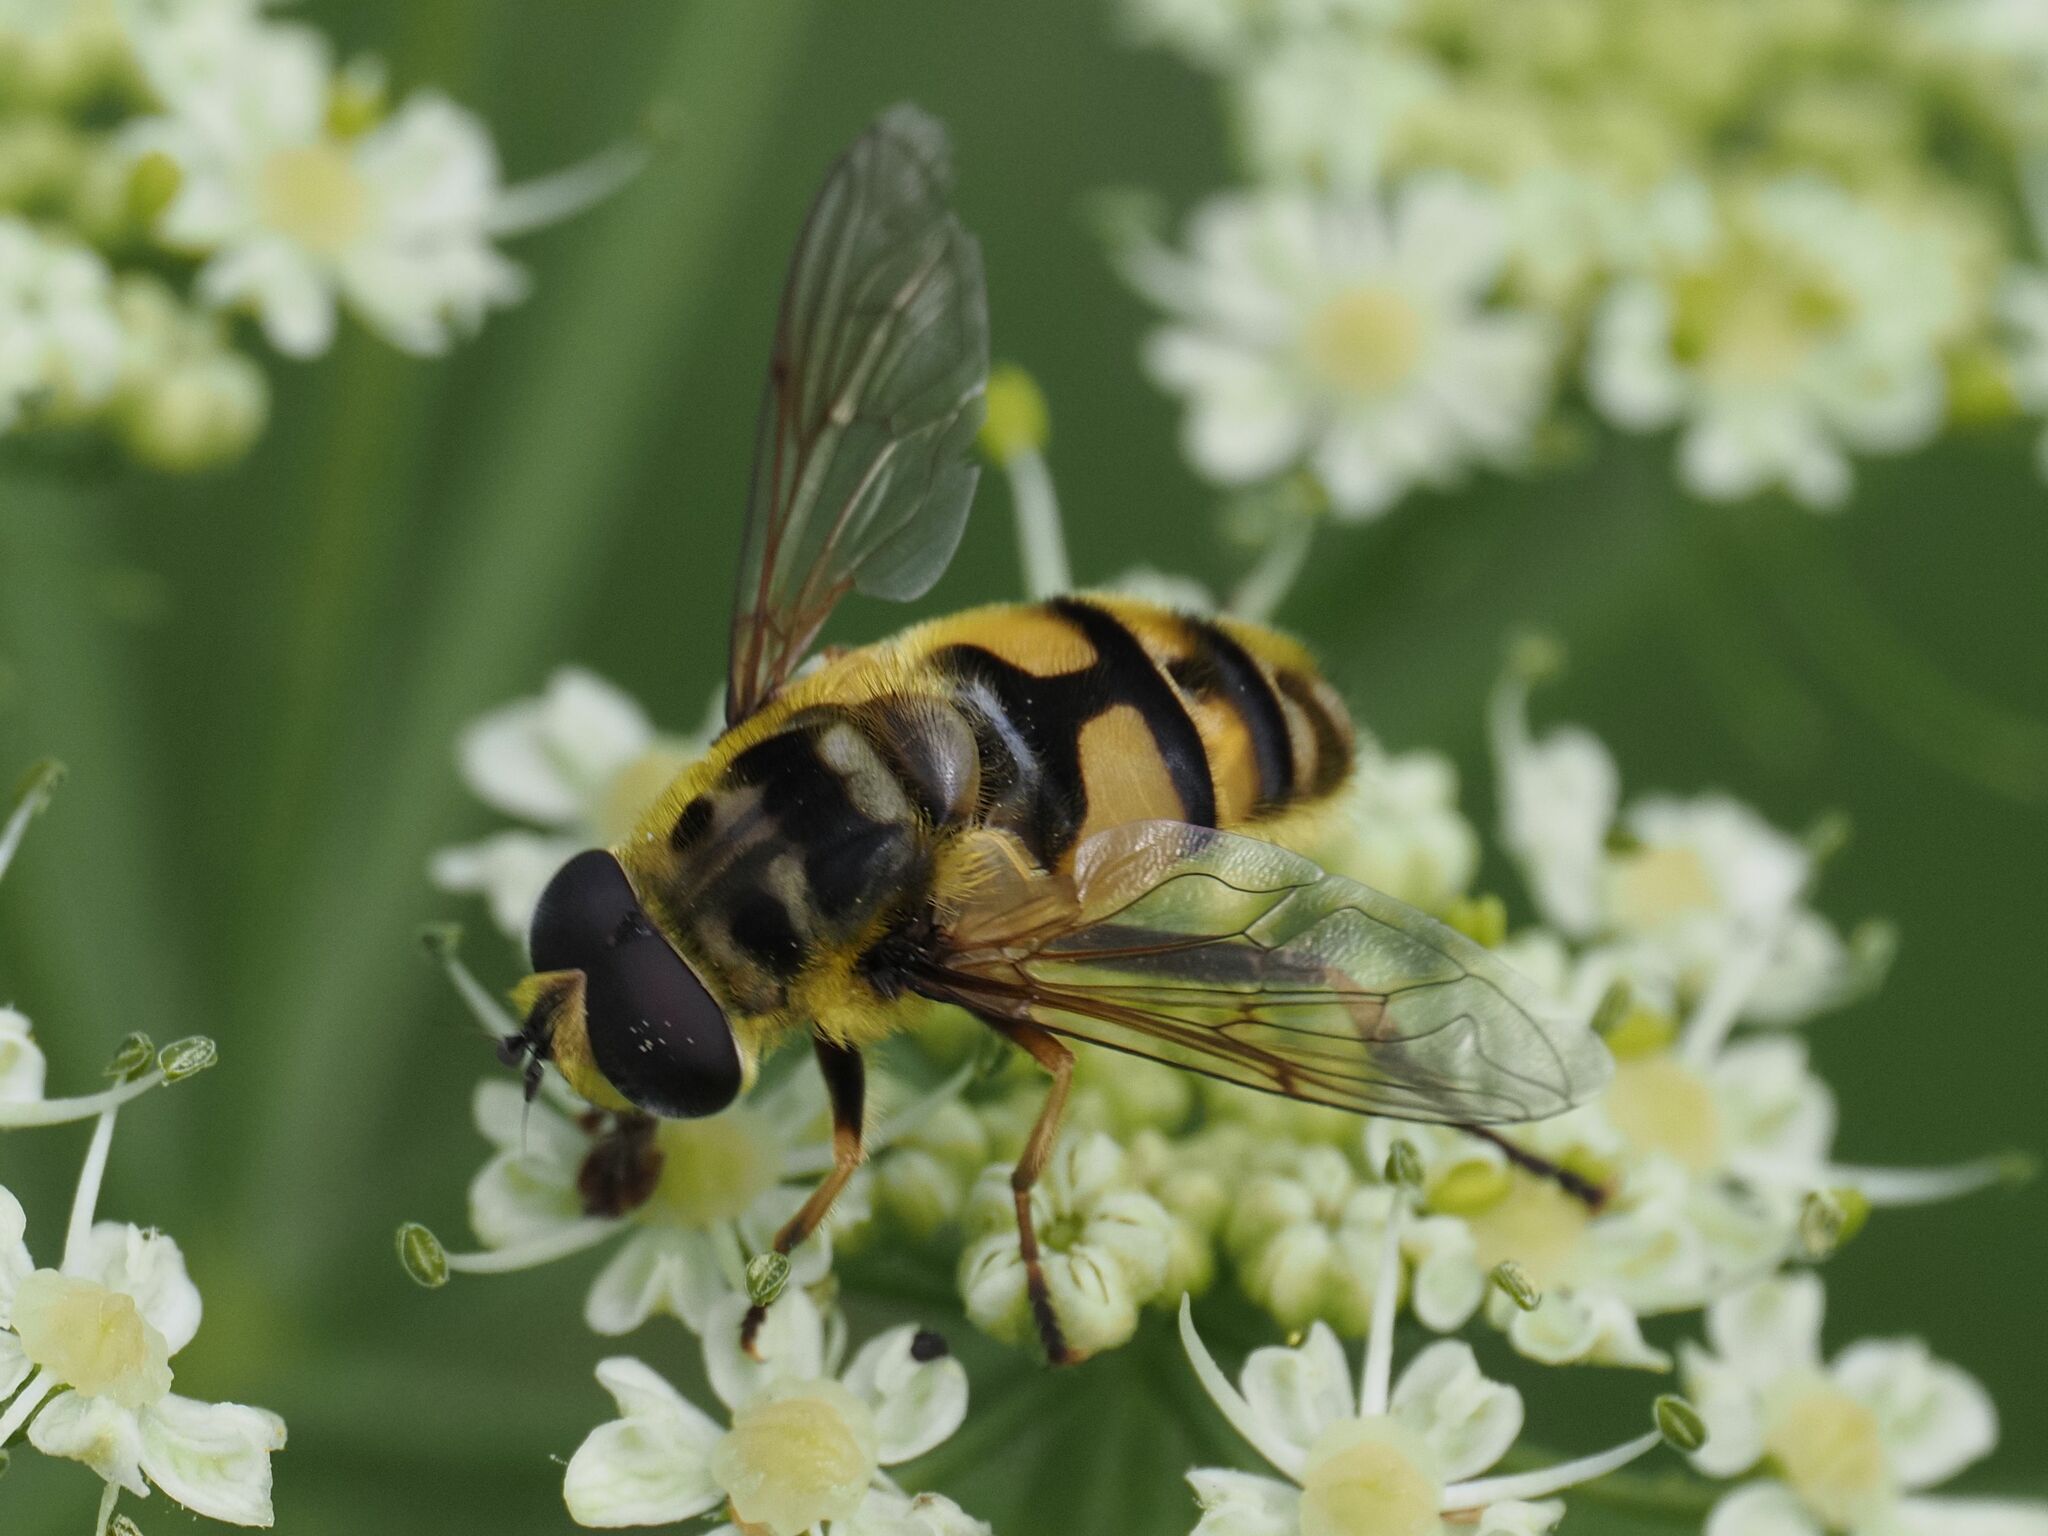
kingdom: Animalia
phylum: Arthropoda
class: Insecta
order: Diptera
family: Syrphidae
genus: Myathropa
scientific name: Myathropa florea
